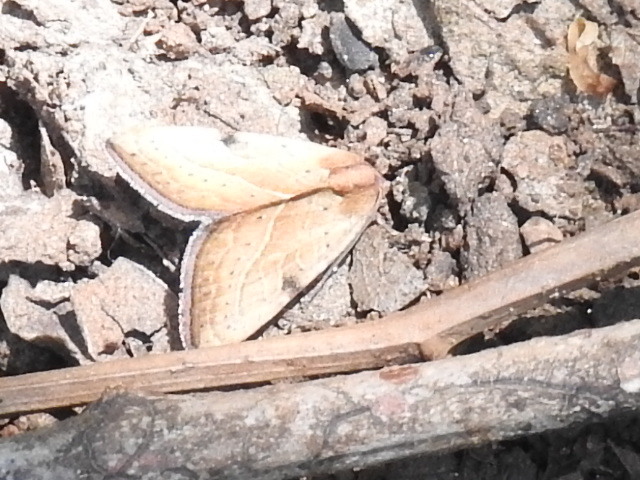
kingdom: Animalia
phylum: Arthropoda
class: Insecta
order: Lepidoptera
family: Noctuidae
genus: Galgula
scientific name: Galgula partita
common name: Wedgeling
